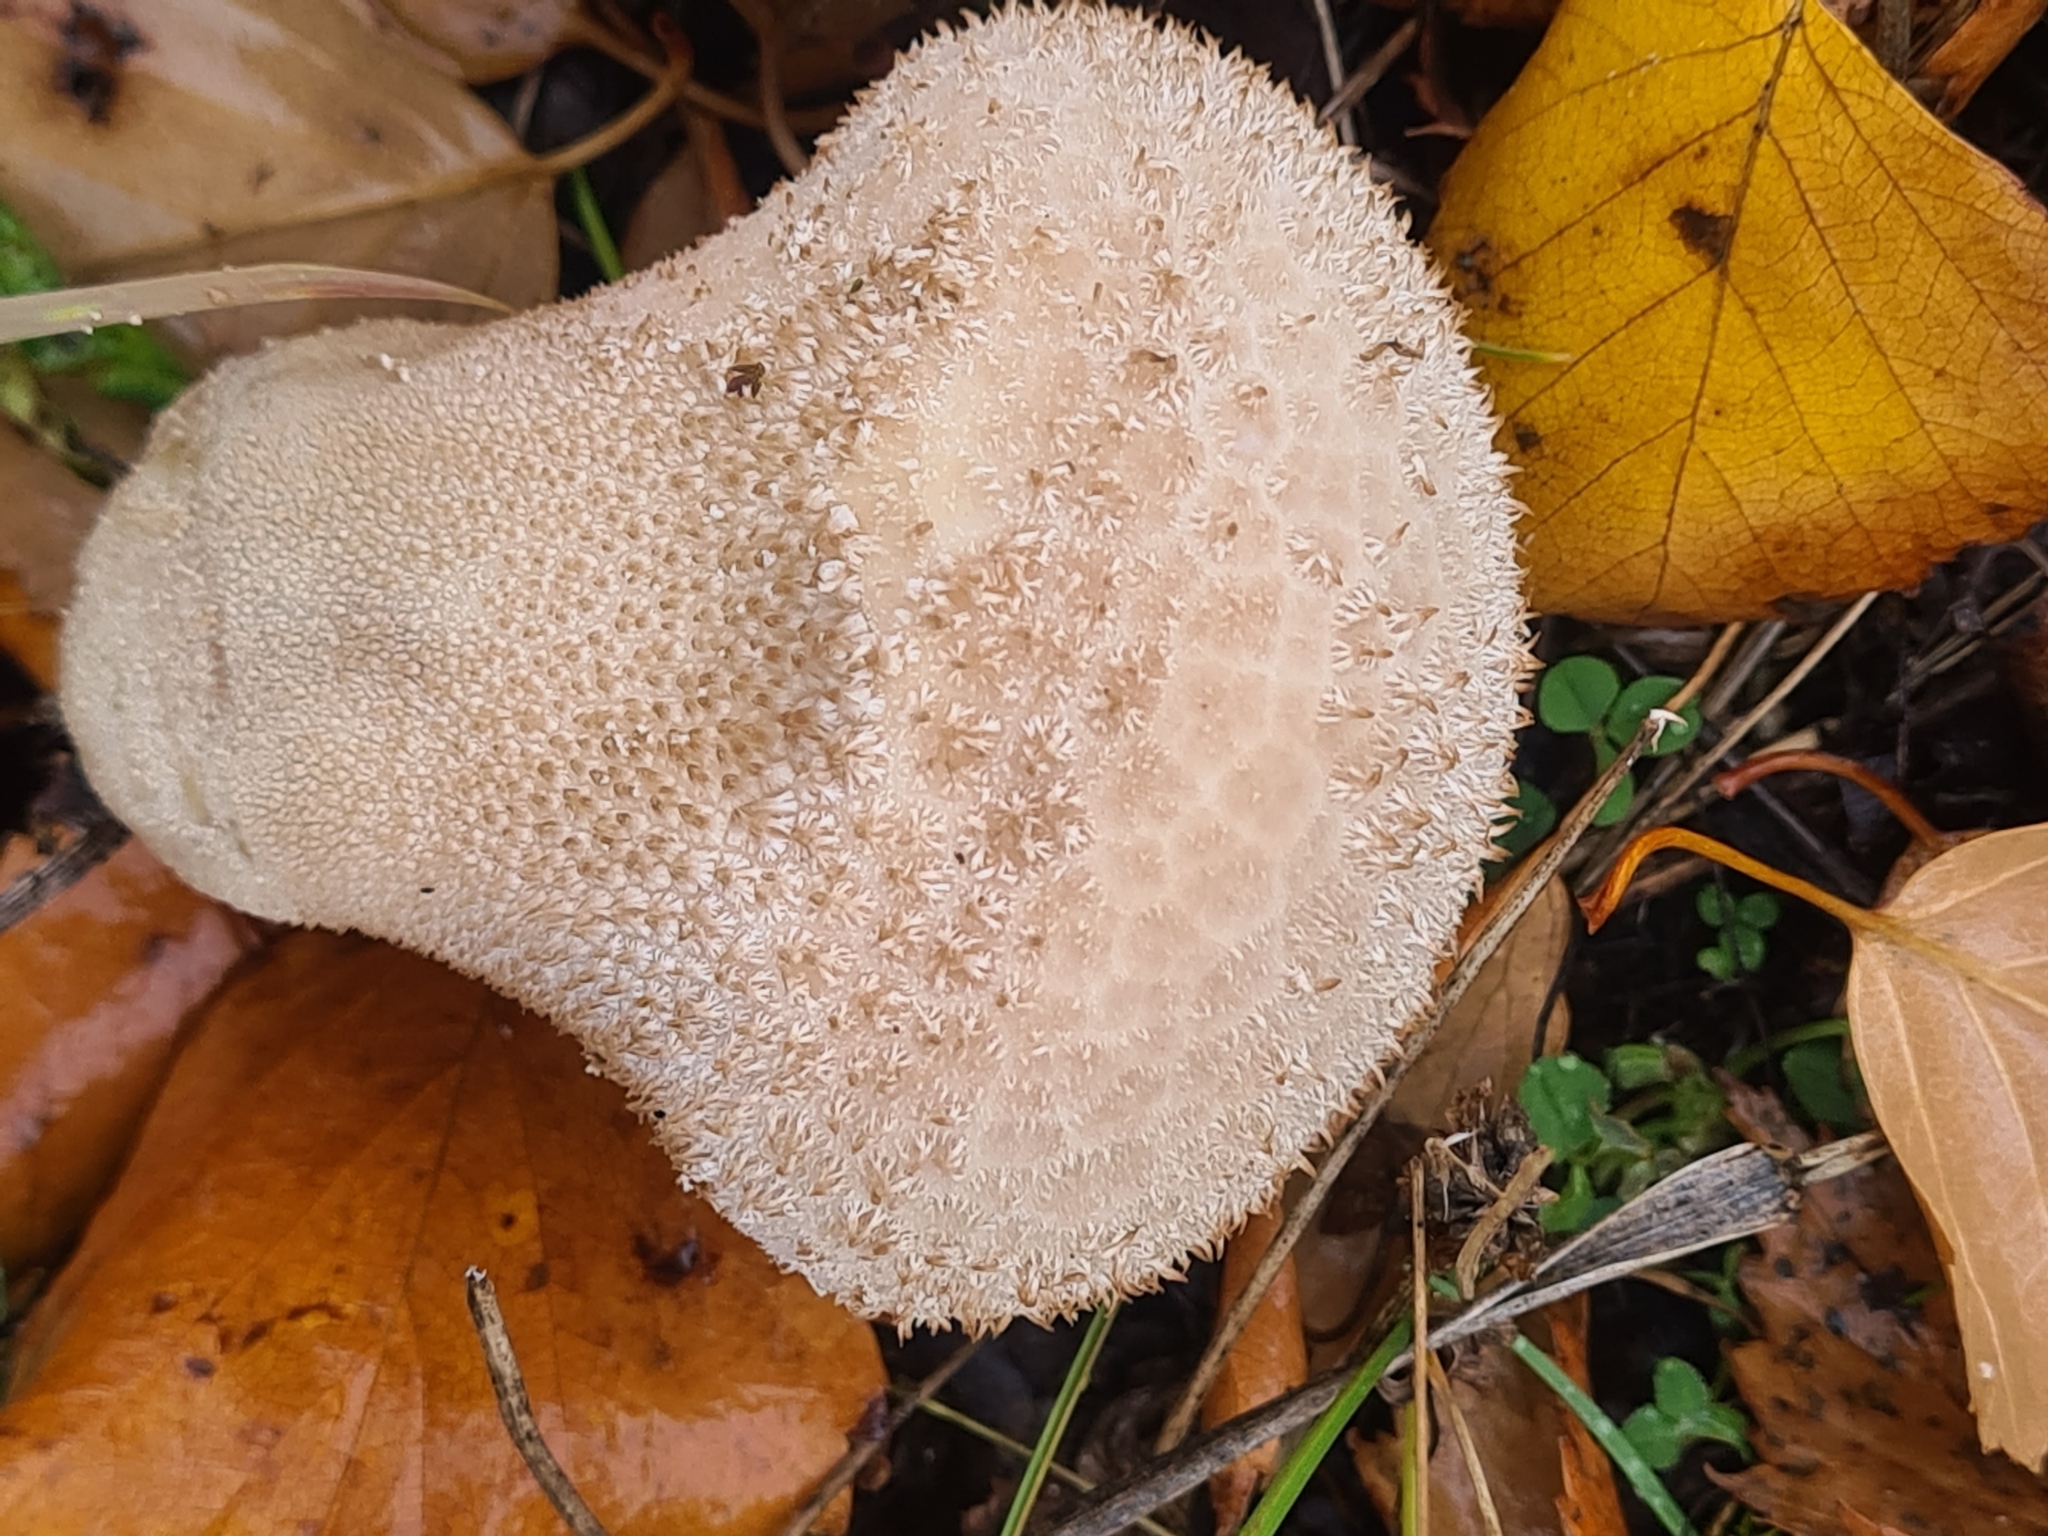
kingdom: Fungi
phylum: Basidiomycota
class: Agaricomycetes
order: Agaricales
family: Lycoperdaceae
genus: Lycoperdon
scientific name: Lycoperdon perlatum
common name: Common puffball
